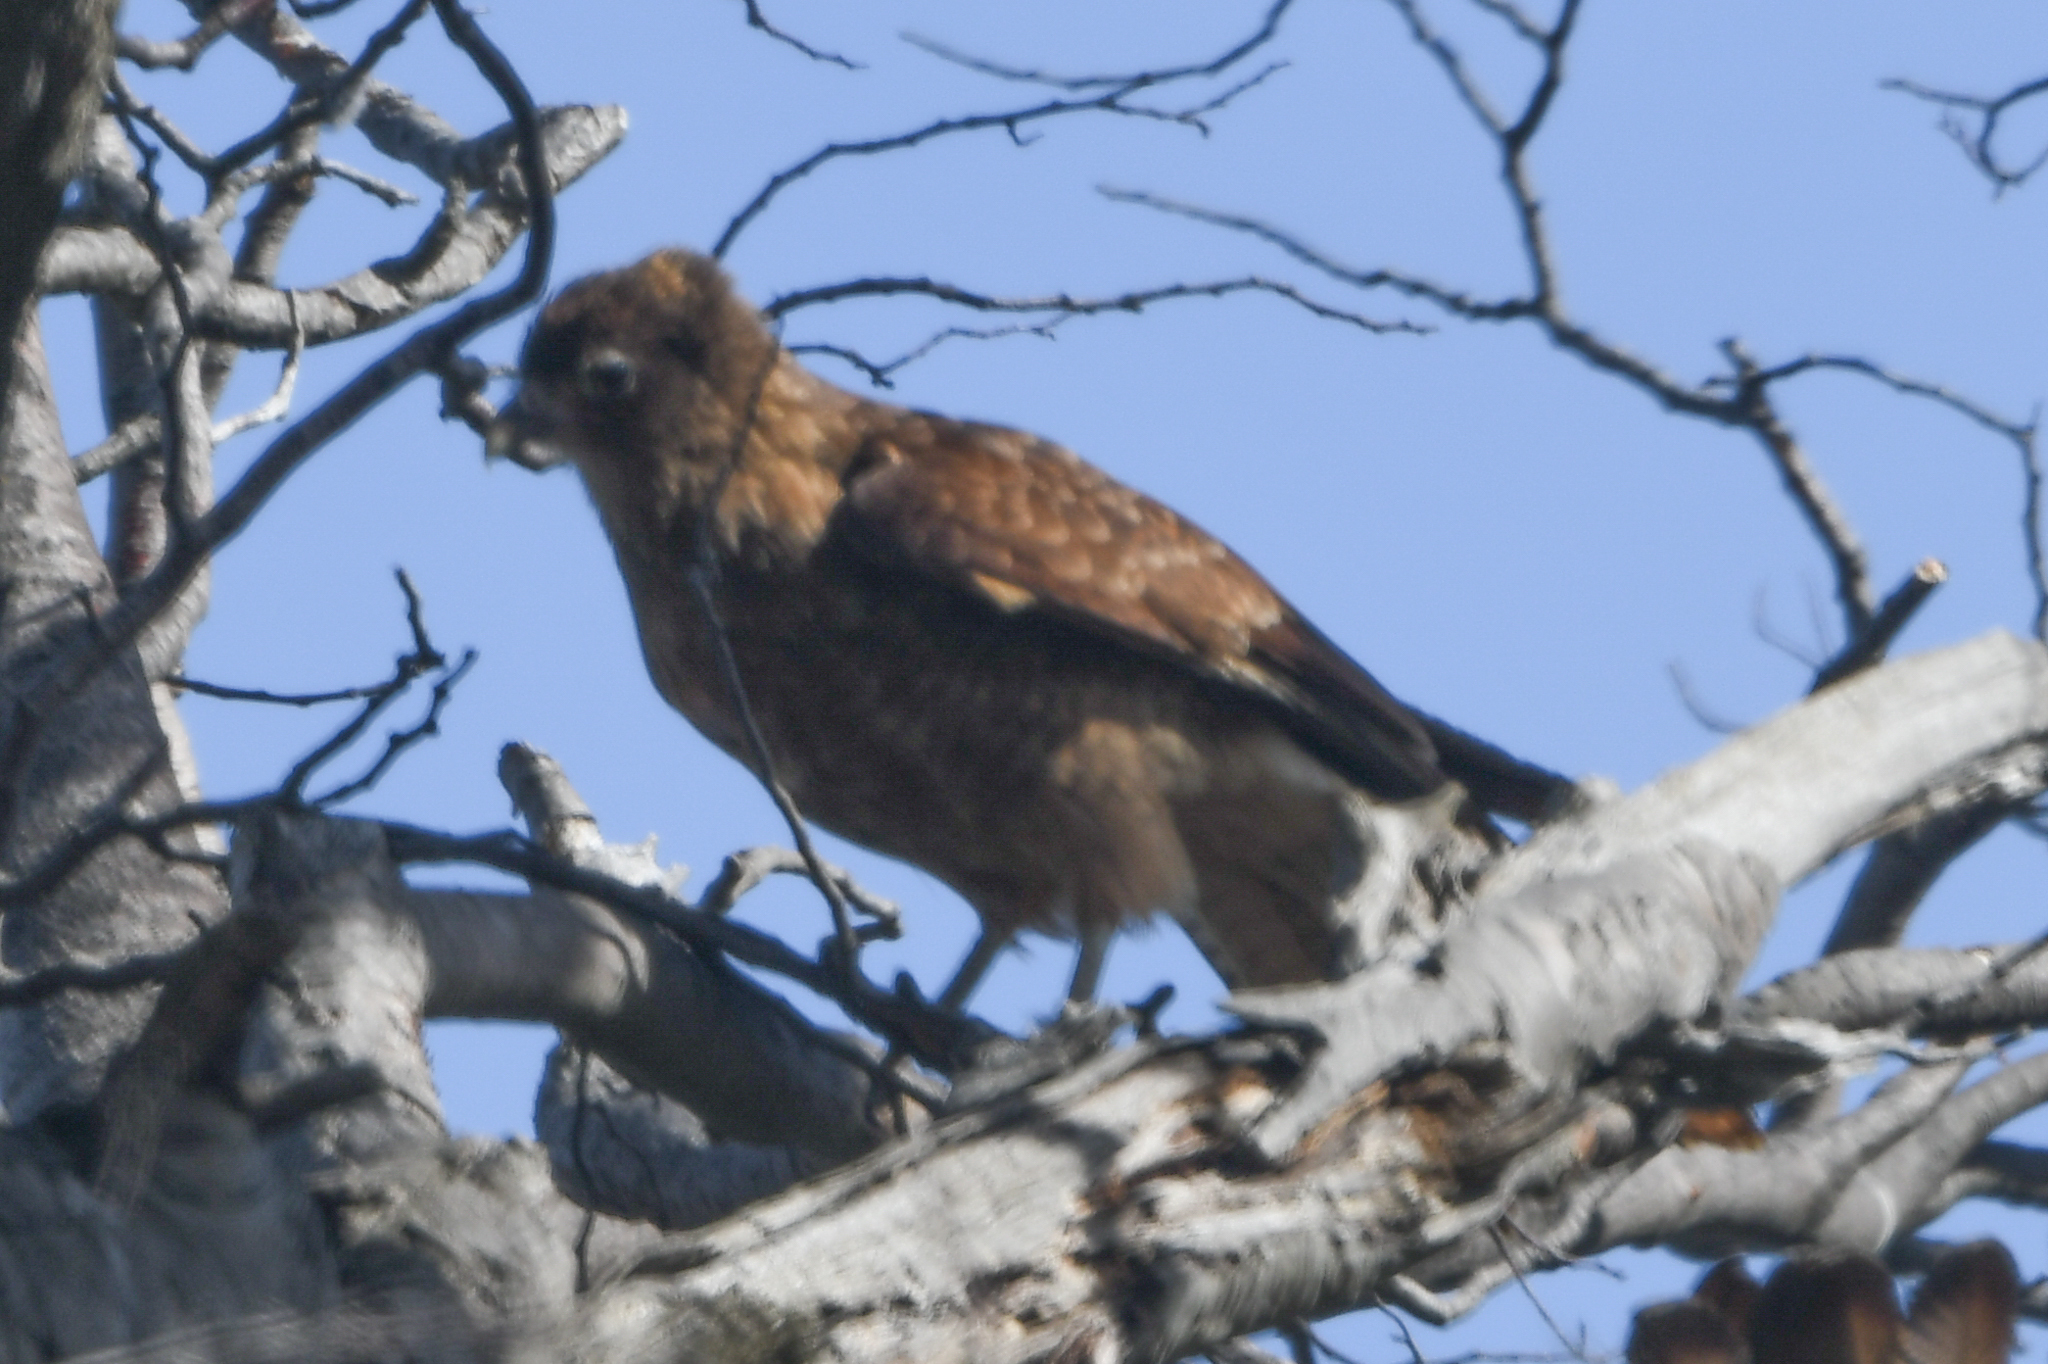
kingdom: Animalia
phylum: Chordata
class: Aves
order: Falconiformes
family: Falconidae
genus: Daptrius
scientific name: Daptrius
